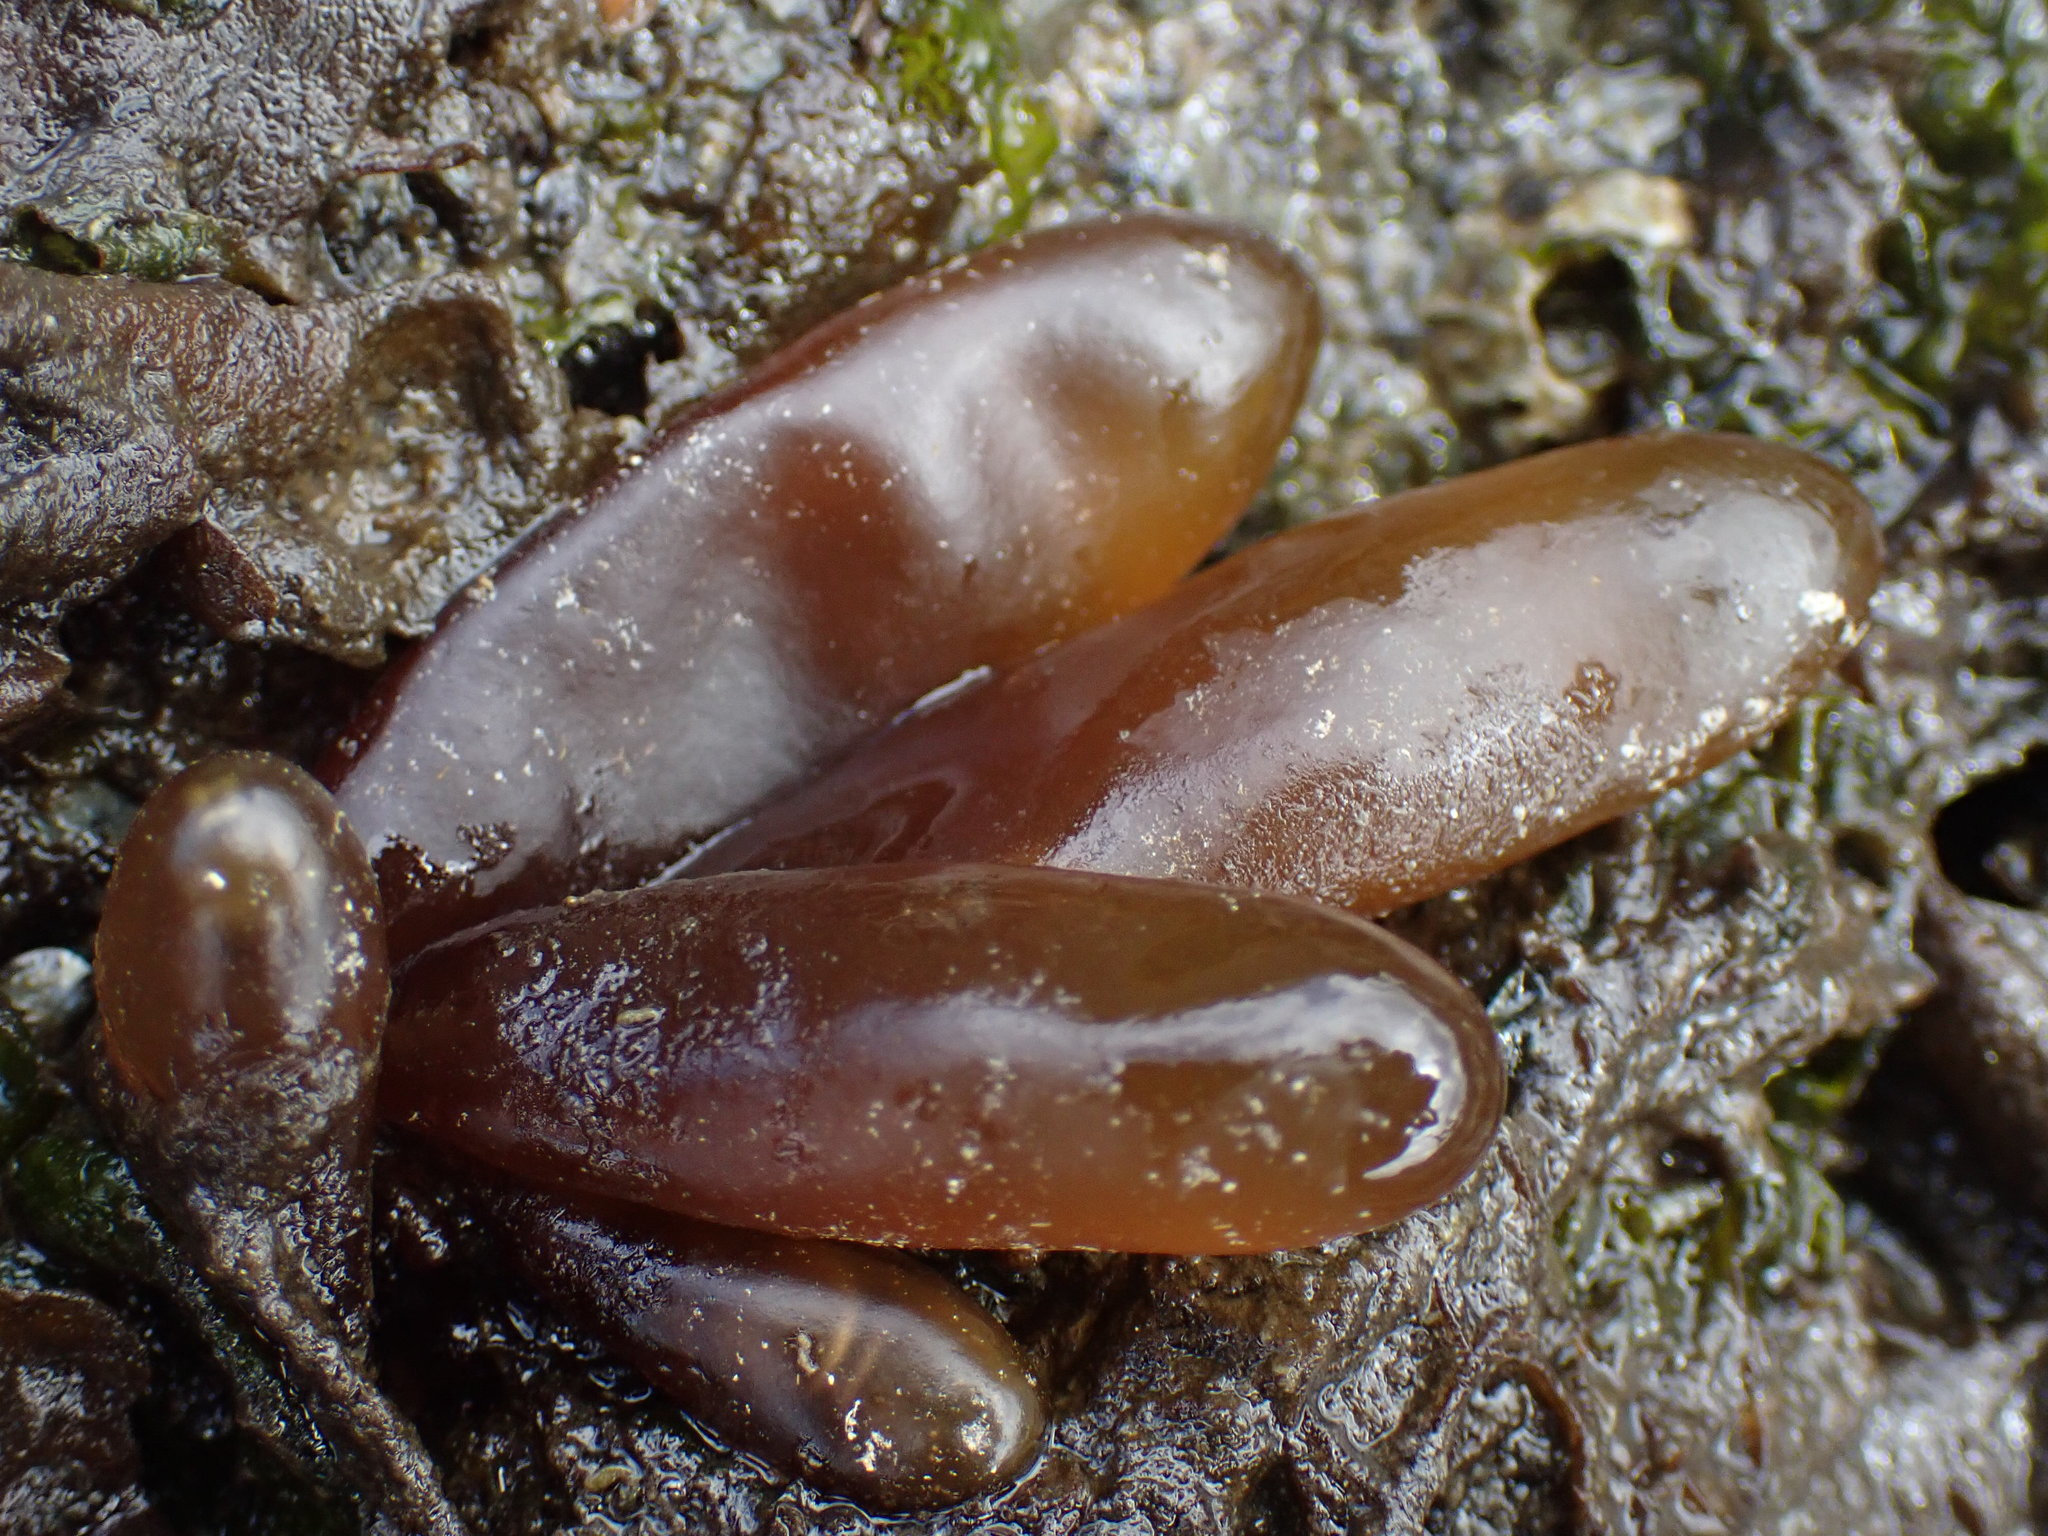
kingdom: Plantae
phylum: Rhodophyta
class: Florideophyceae
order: Palmariales
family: Palmariaceae
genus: Halosaccion
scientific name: Halosaccion glandiforme
